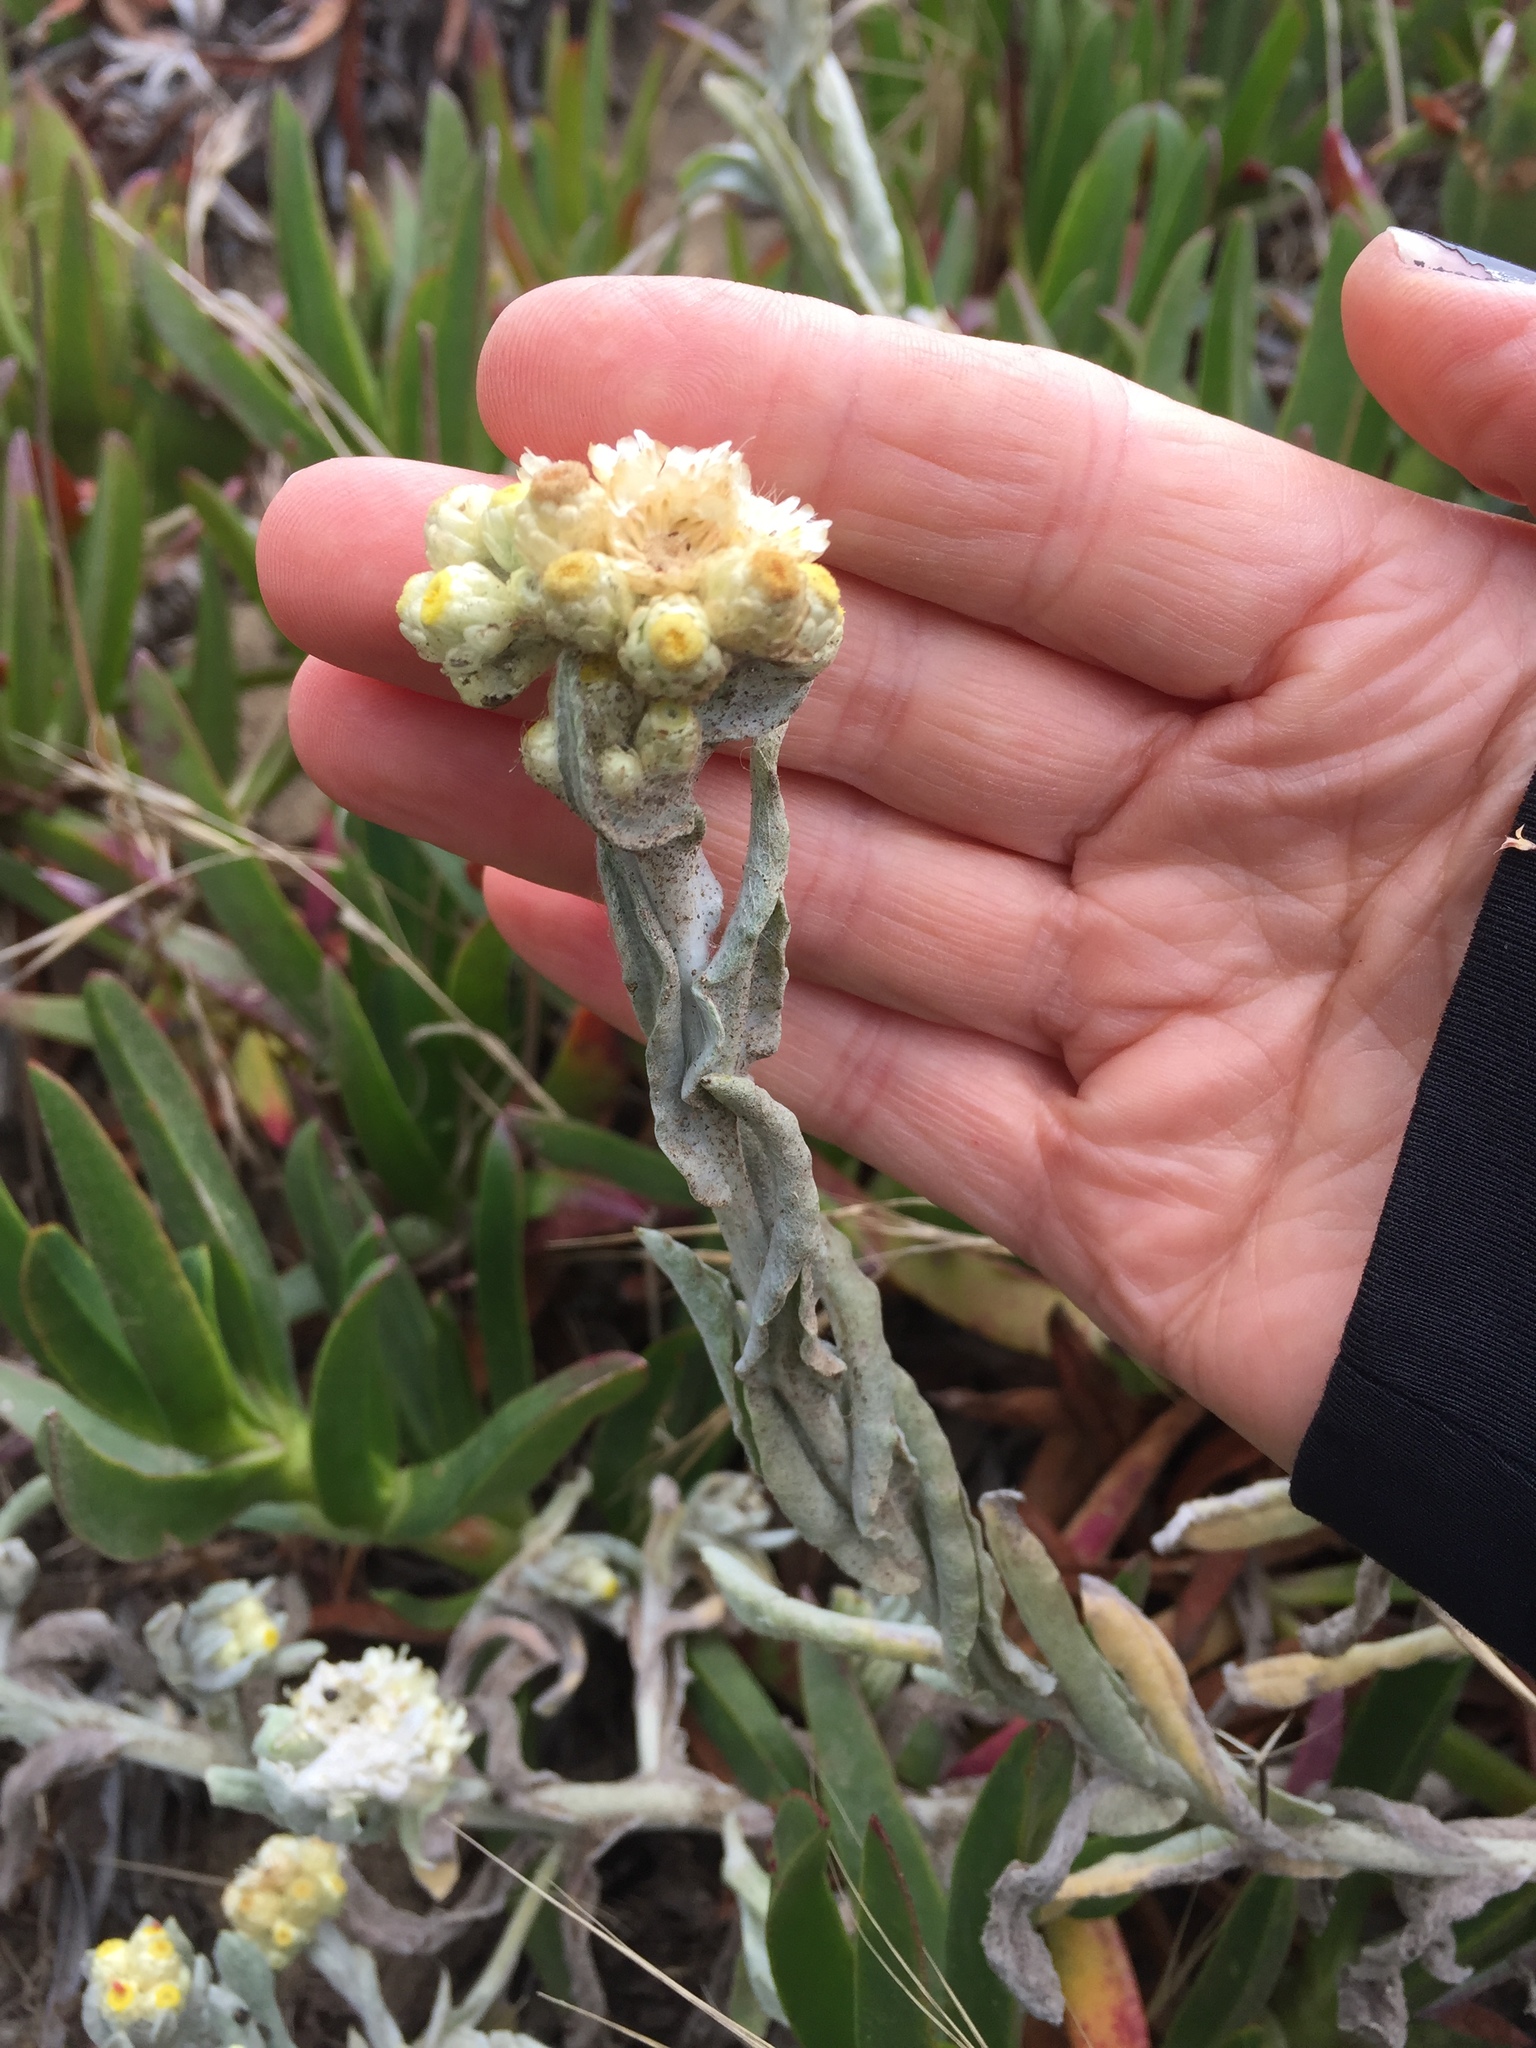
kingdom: Plantae
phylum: Tracheophyta
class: Magnoliopsida
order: Asterales
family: Asteraceae
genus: Pseudognaphalium
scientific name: Pseudognaphalium stramineum
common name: Cotton-batting-plant
